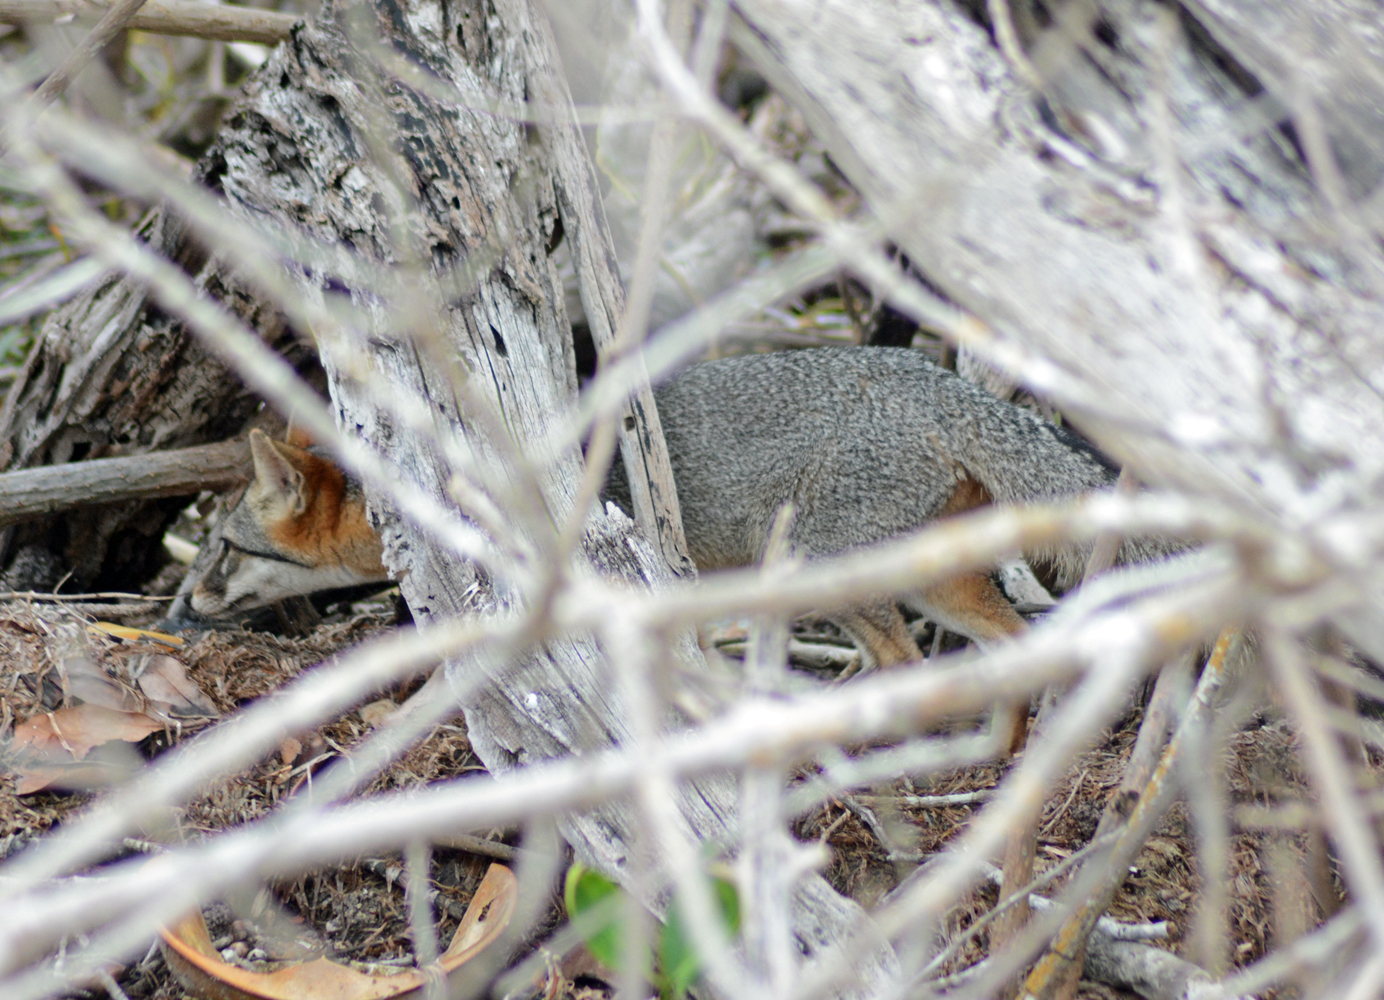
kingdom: Animalia
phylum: Chordata
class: Mammalia
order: Carnivora
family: Canidae
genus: Urocyon
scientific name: Urocyon cinereoargenteus
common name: Gray fox
